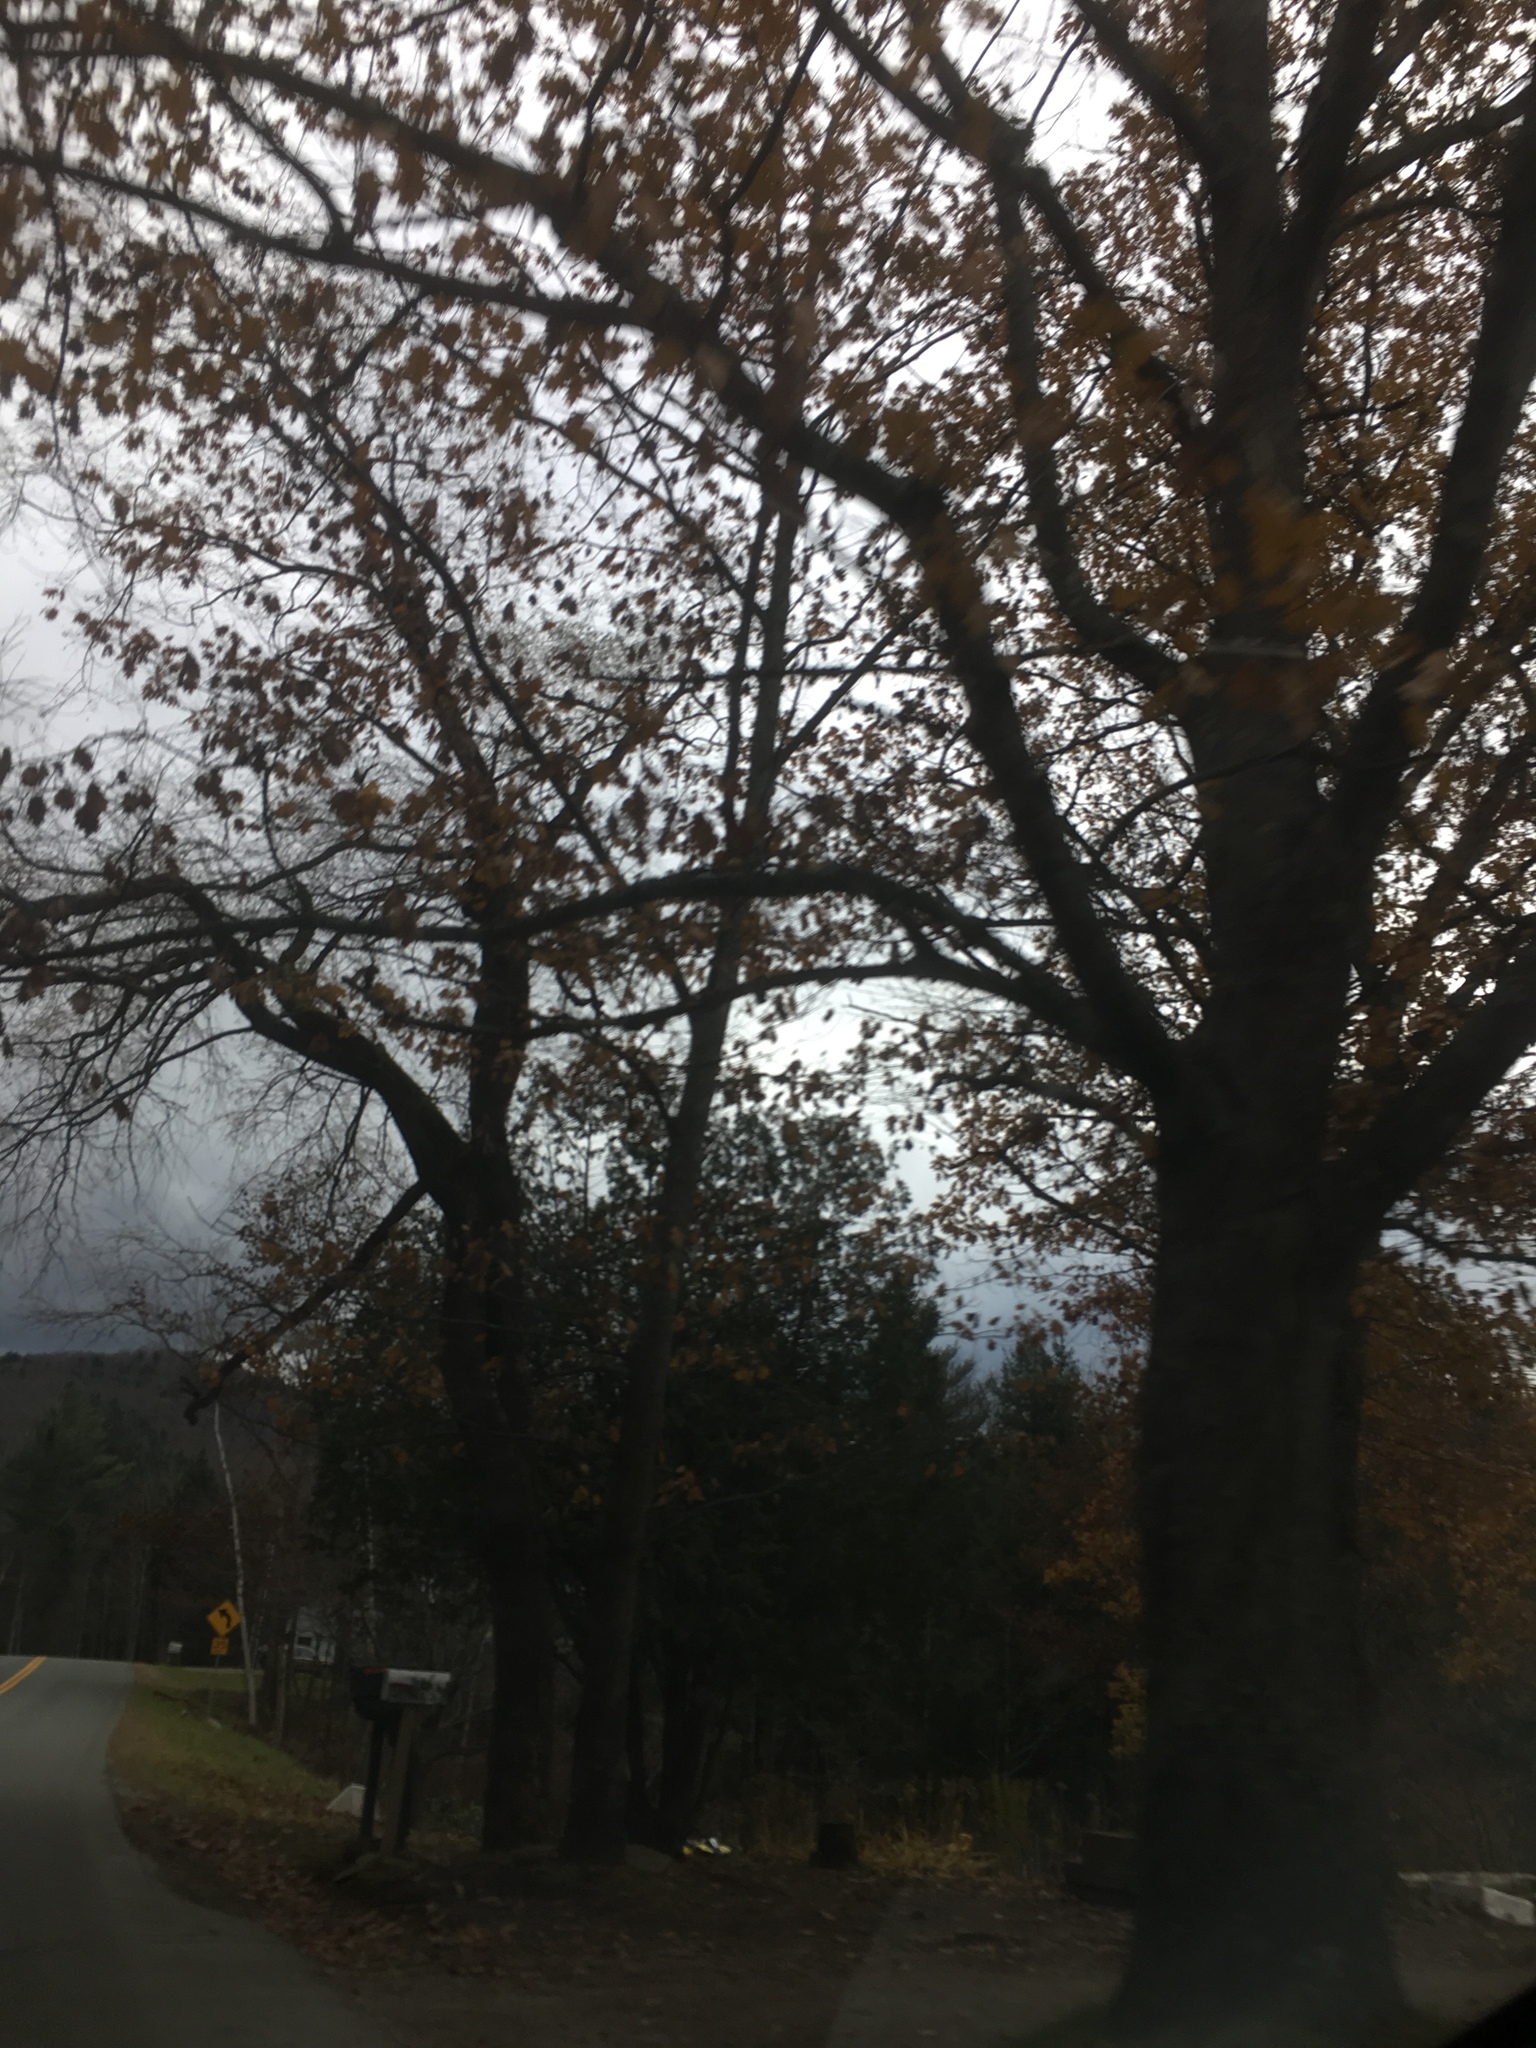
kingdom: Plantae
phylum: Tracheophyta
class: Magnoliopsida
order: Fagales
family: Fagaceae
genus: Quercus
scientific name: Quercus rubra
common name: Red oak
